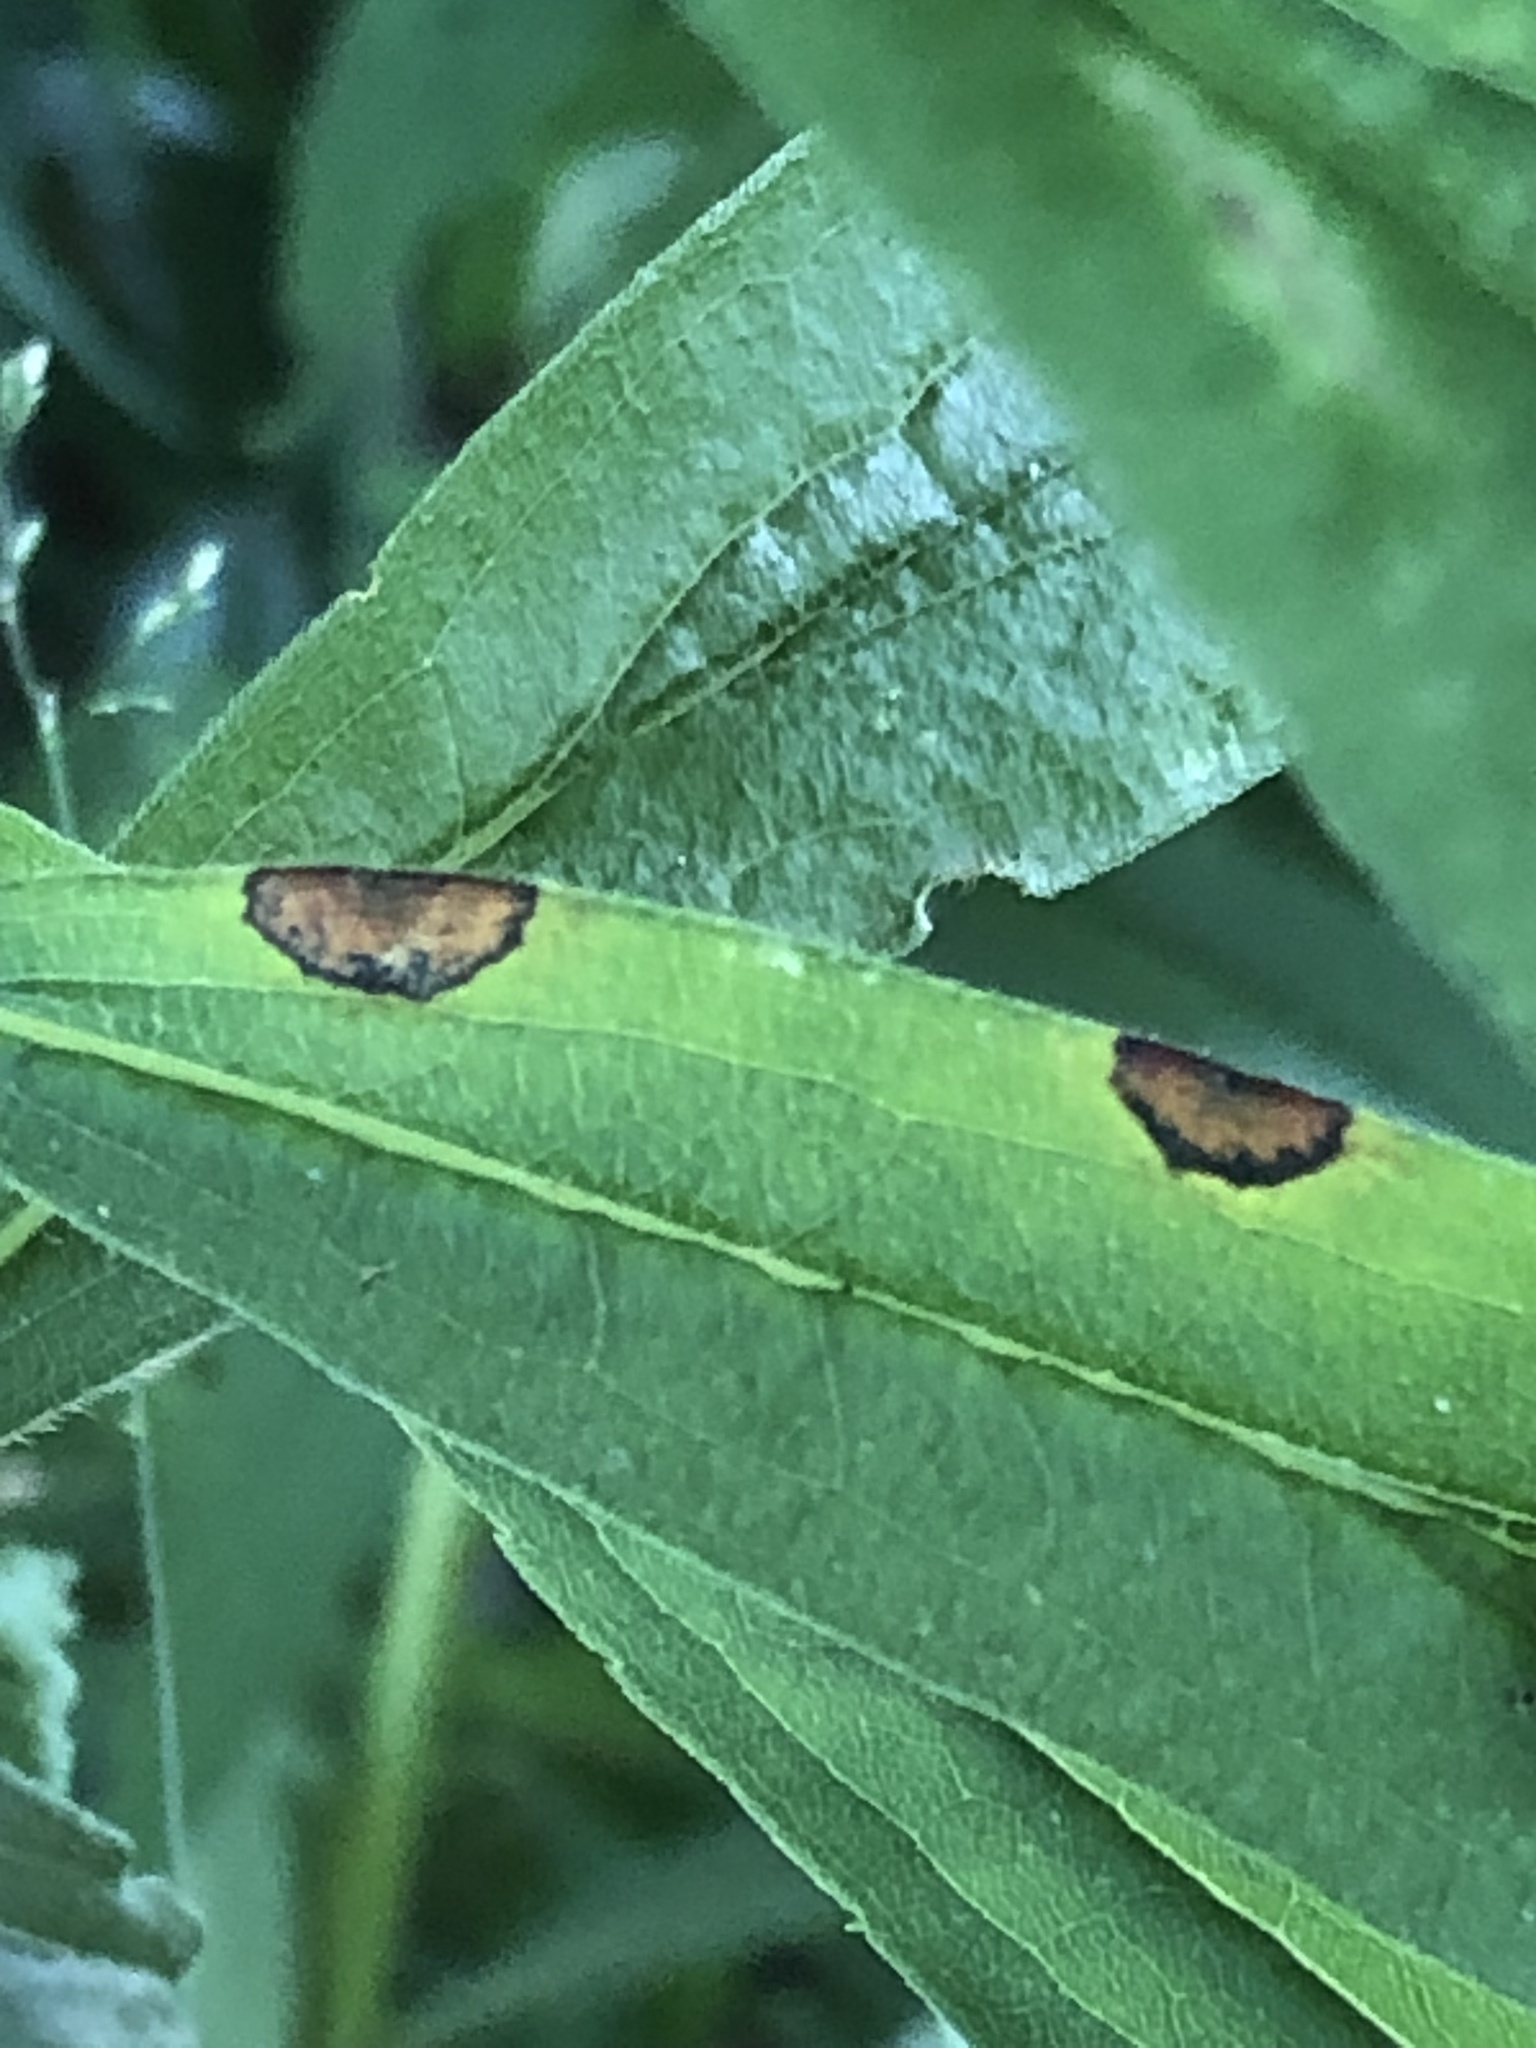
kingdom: Animalia
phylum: Arthropoda
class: Insecta
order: Diptera
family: Cecidomyiidae
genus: Asteromyia
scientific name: Asteromyia carbonifera
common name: Carbonifera goldenrod gall midge
